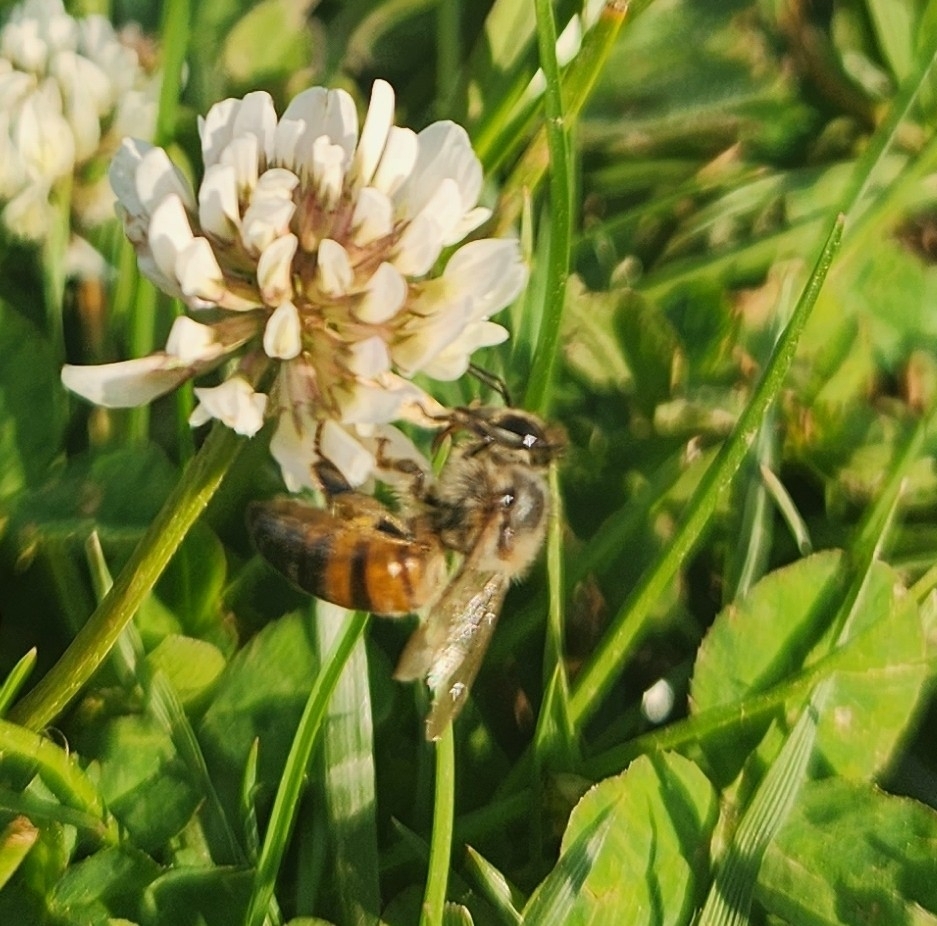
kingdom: Animalia
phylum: Arthropoda
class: Insecta
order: Hymenoptera
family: Apidae
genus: Apis
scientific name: Apis mellifera
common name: Honey bee
